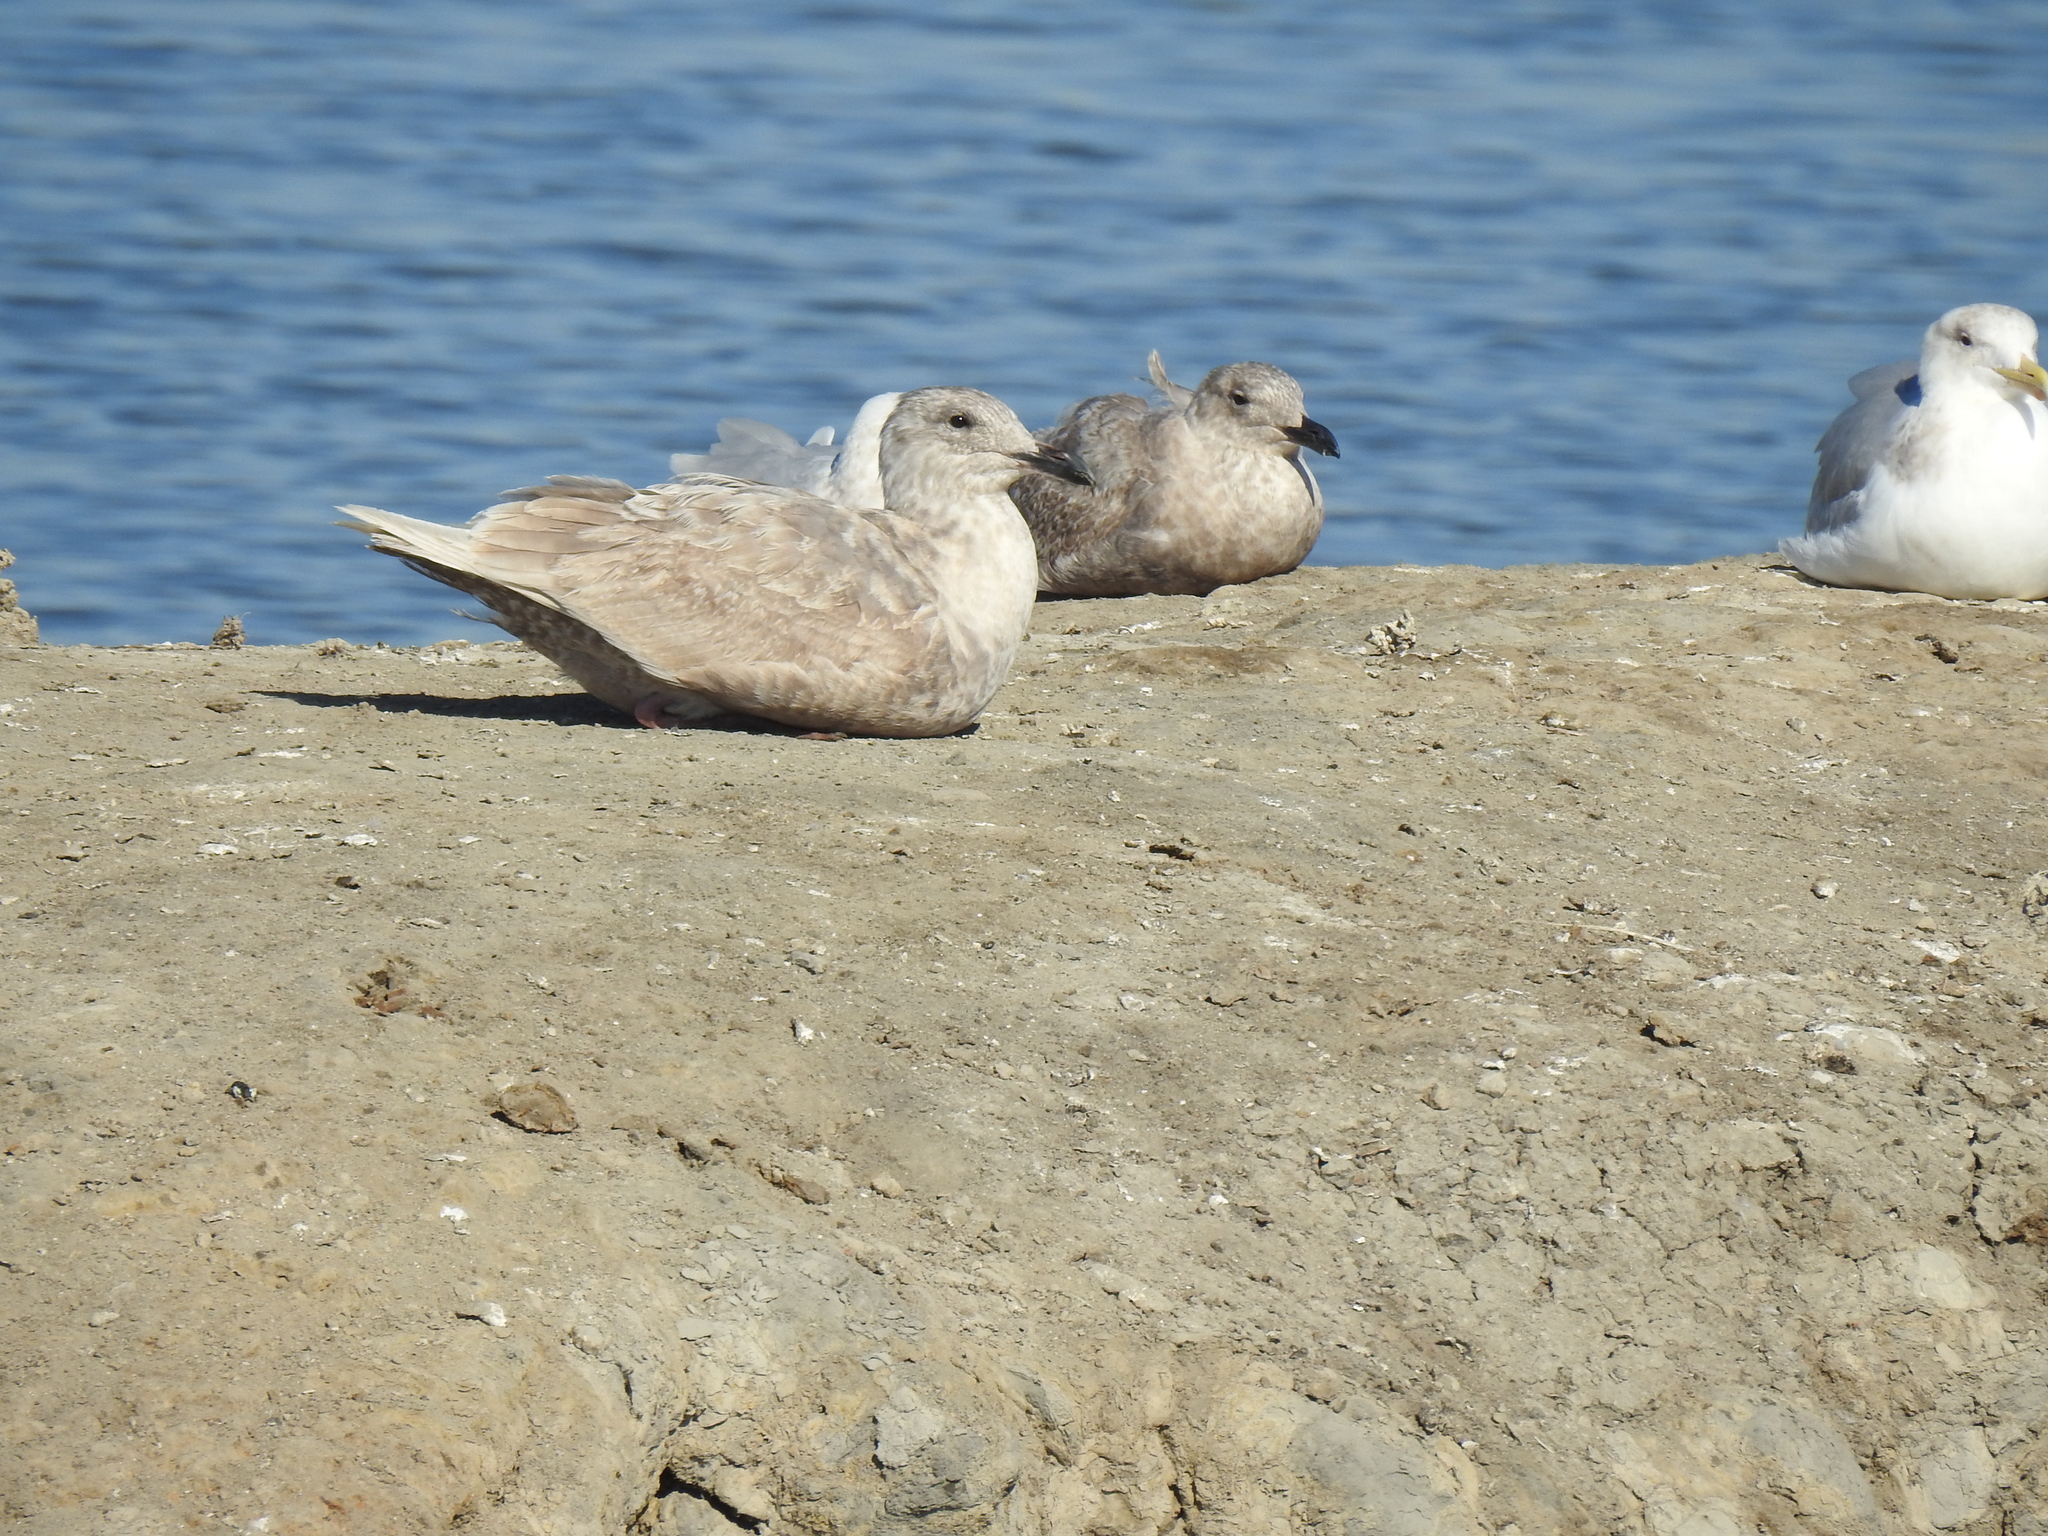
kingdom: Animalia
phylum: Chordata
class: Aves
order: Charadriiformes
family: Laridae
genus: Larus
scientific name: Larus glaucescens
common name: Glaucous-winged gull
